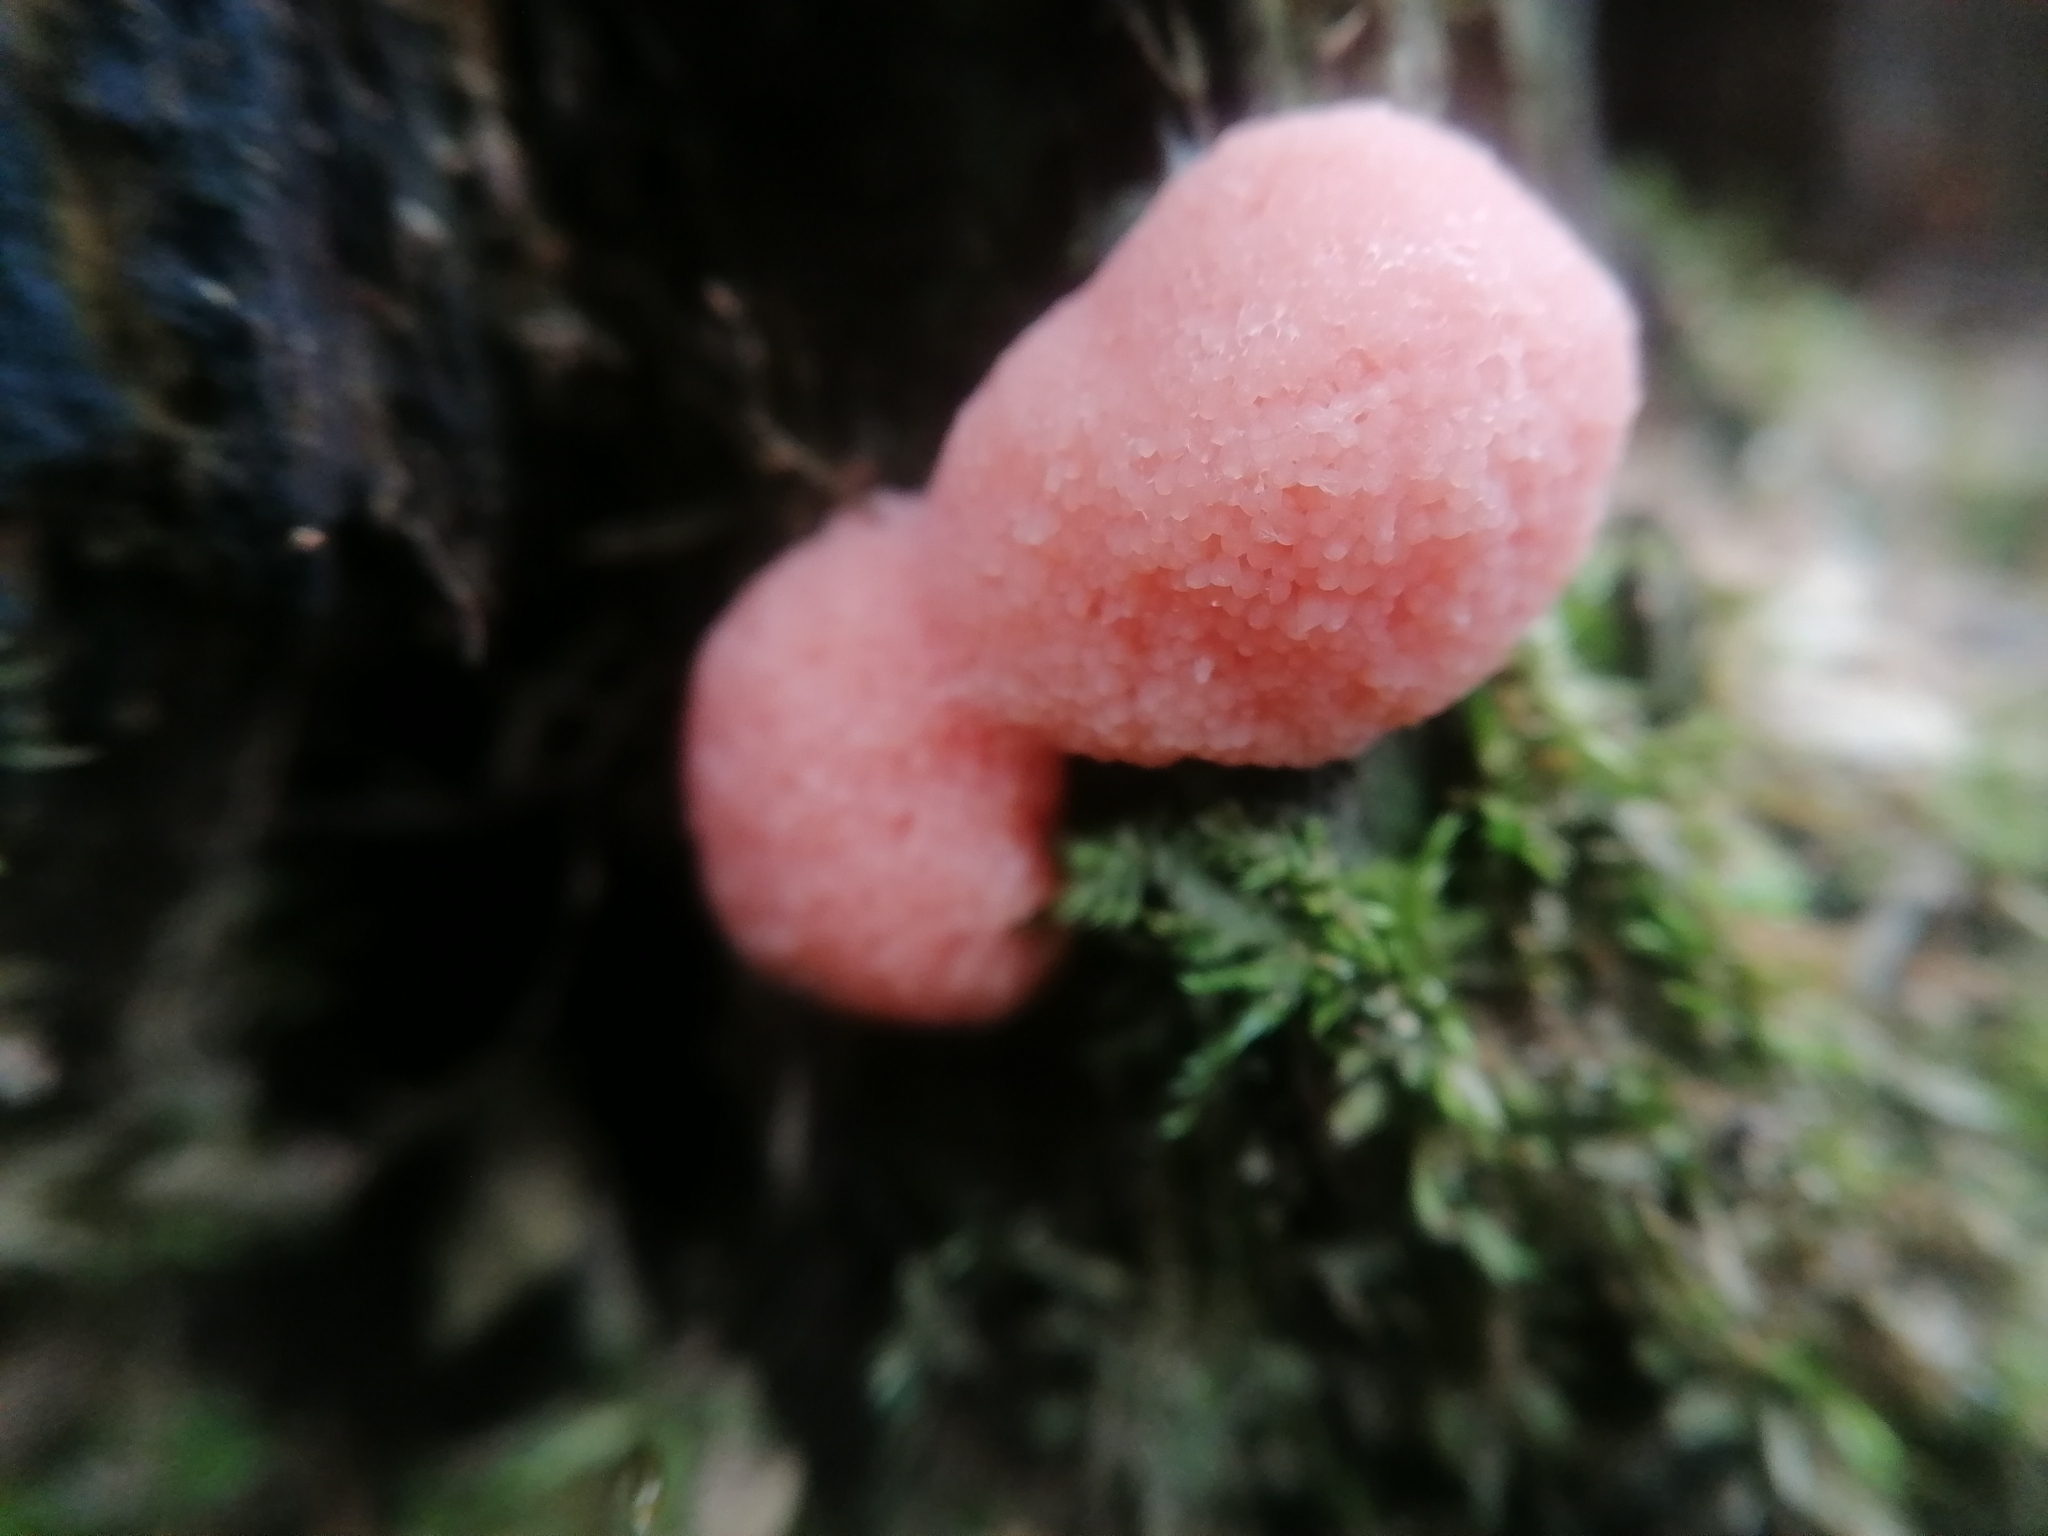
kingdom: Protozoa
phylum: Mycetozoa
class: Myxomycetes
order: Cribrariales
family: Tubiferaceae
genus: Tubifera
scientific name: Tubifera ferruginosa
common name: Red raspberry slime mold
